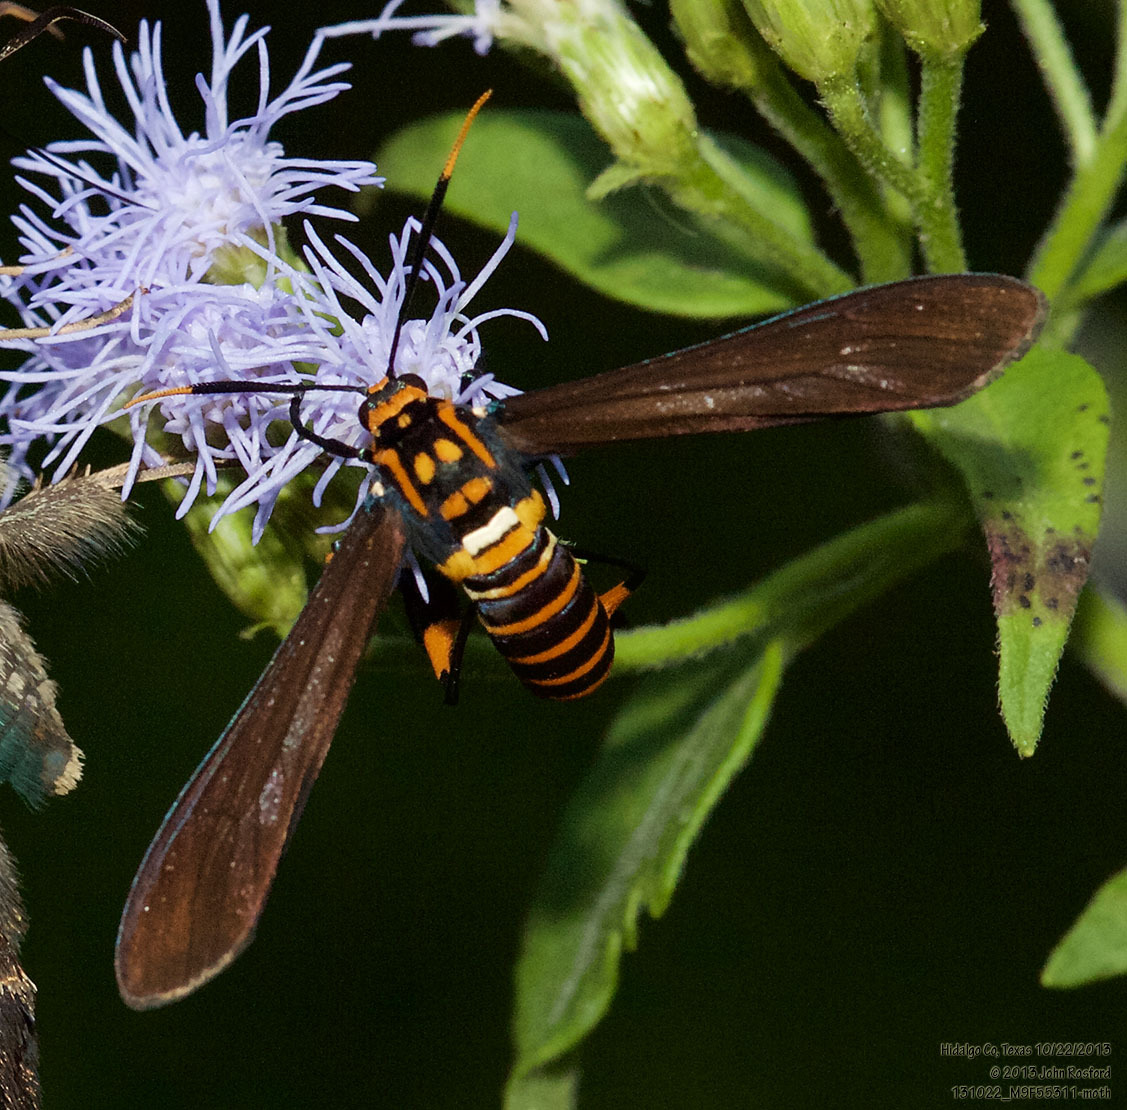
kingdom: Animalia
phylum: Arthropoda
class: Insecta
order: Lepidoptera
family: Erebidae
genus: Horama
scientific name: Horama panthalon
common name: Texas wasp moth
